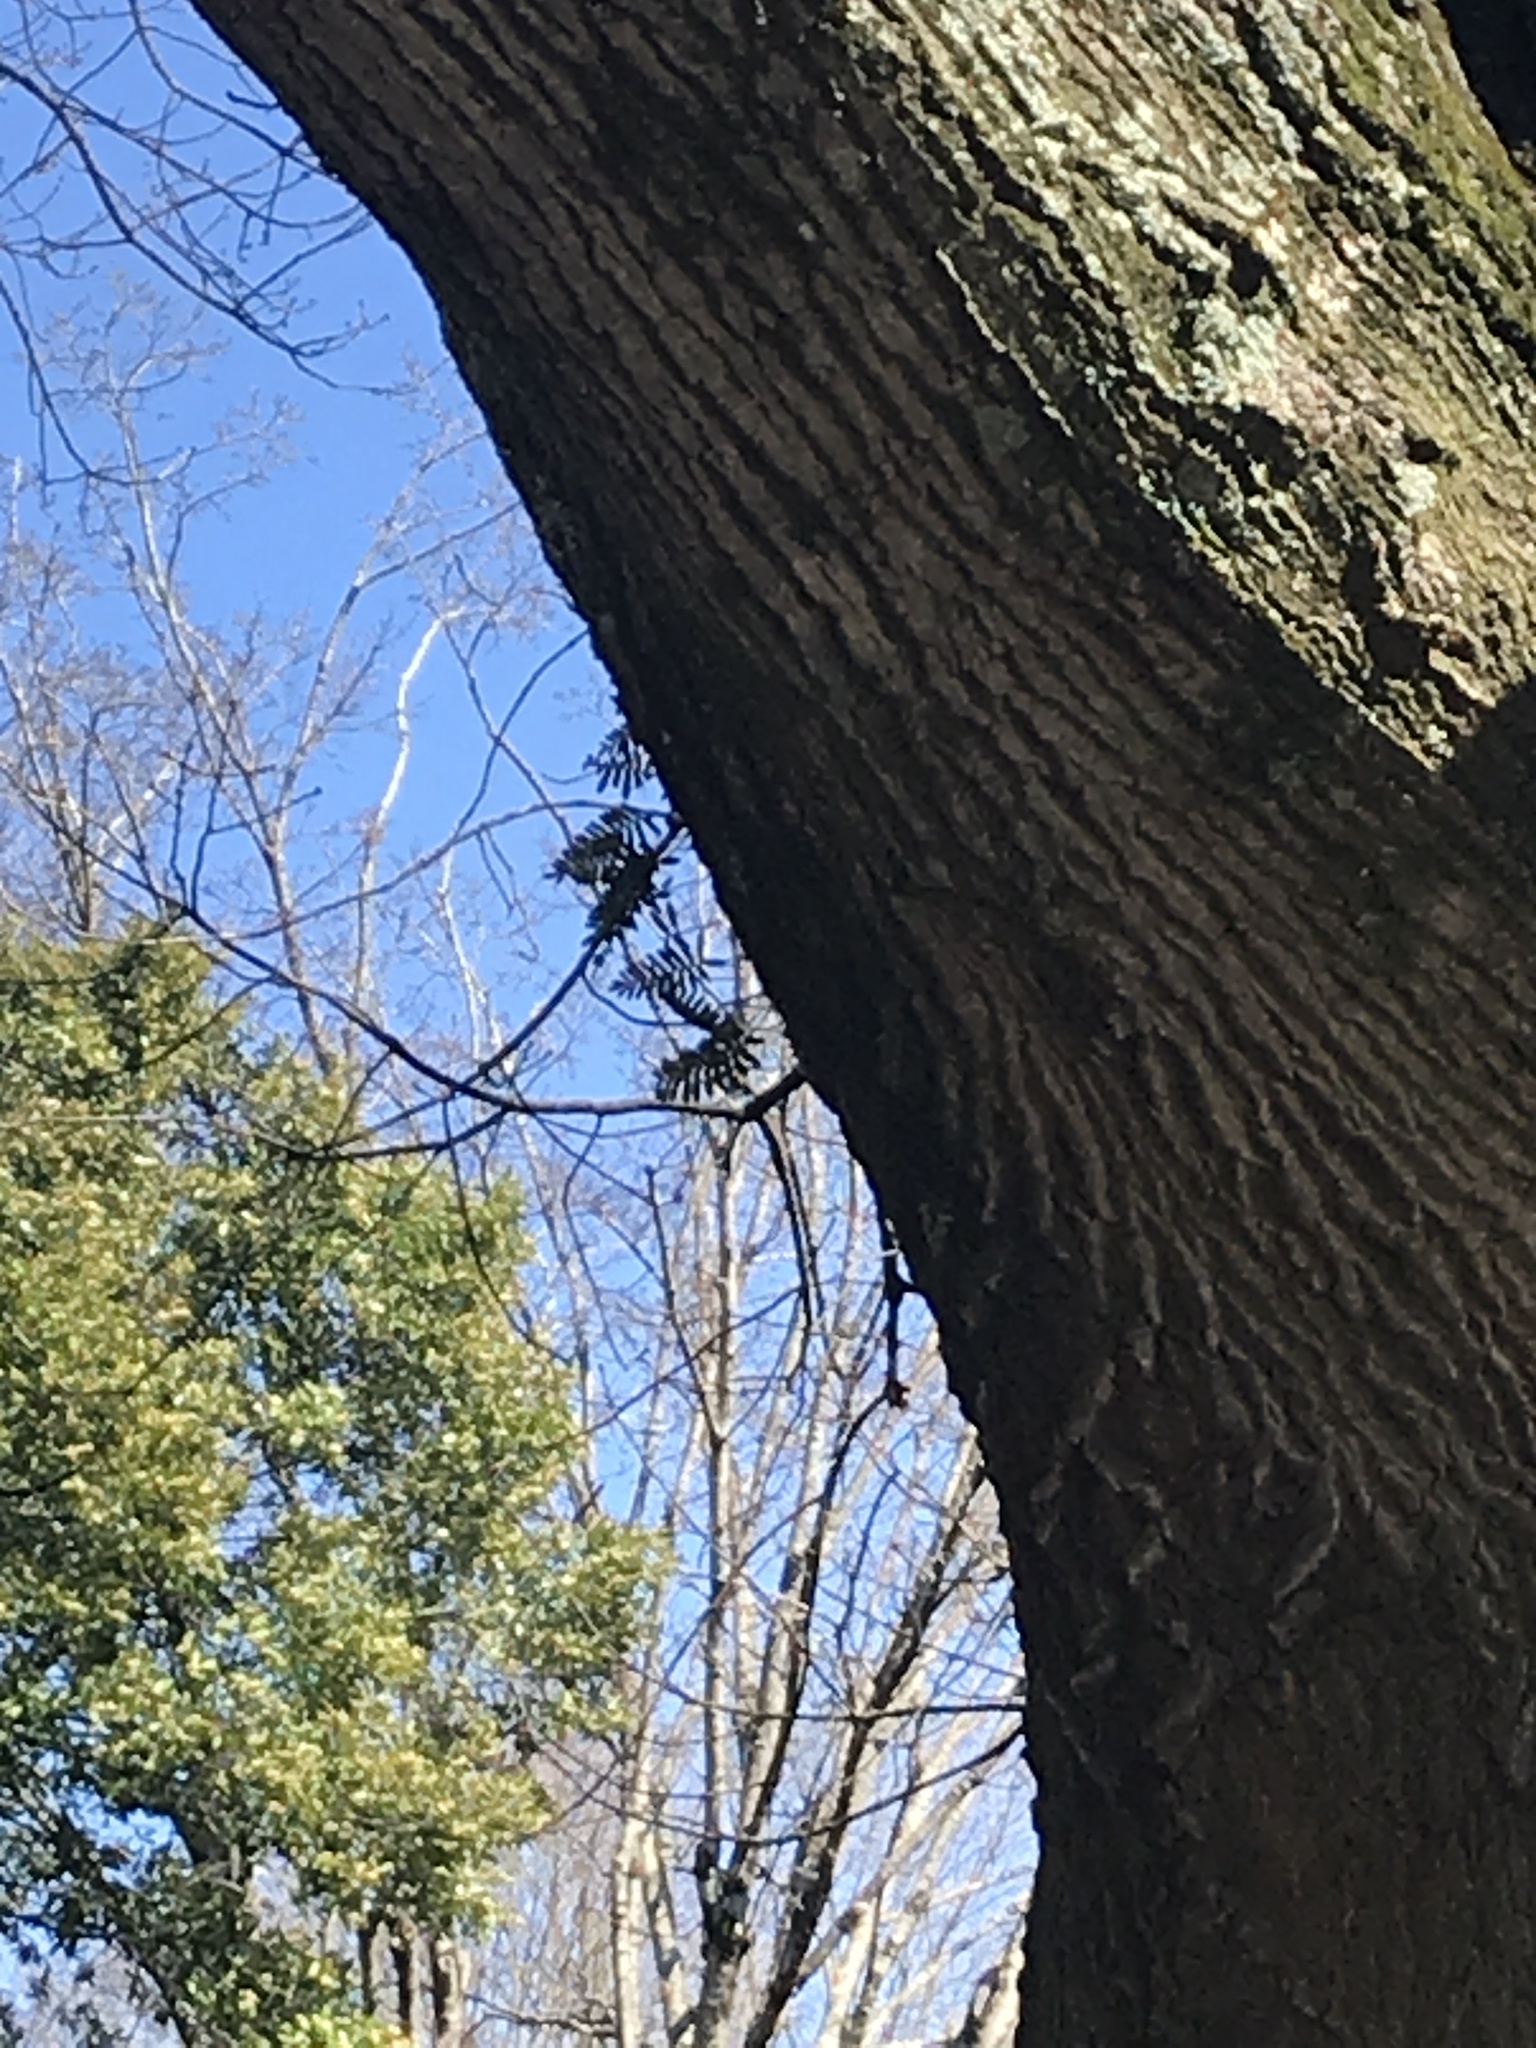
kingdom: Plantae
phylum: Tracheophyta
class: Polypodiopsida
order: Polypodiales
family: Polypodiaceae
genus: Pleopeltis
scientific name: Pleopeltis michauxiana
